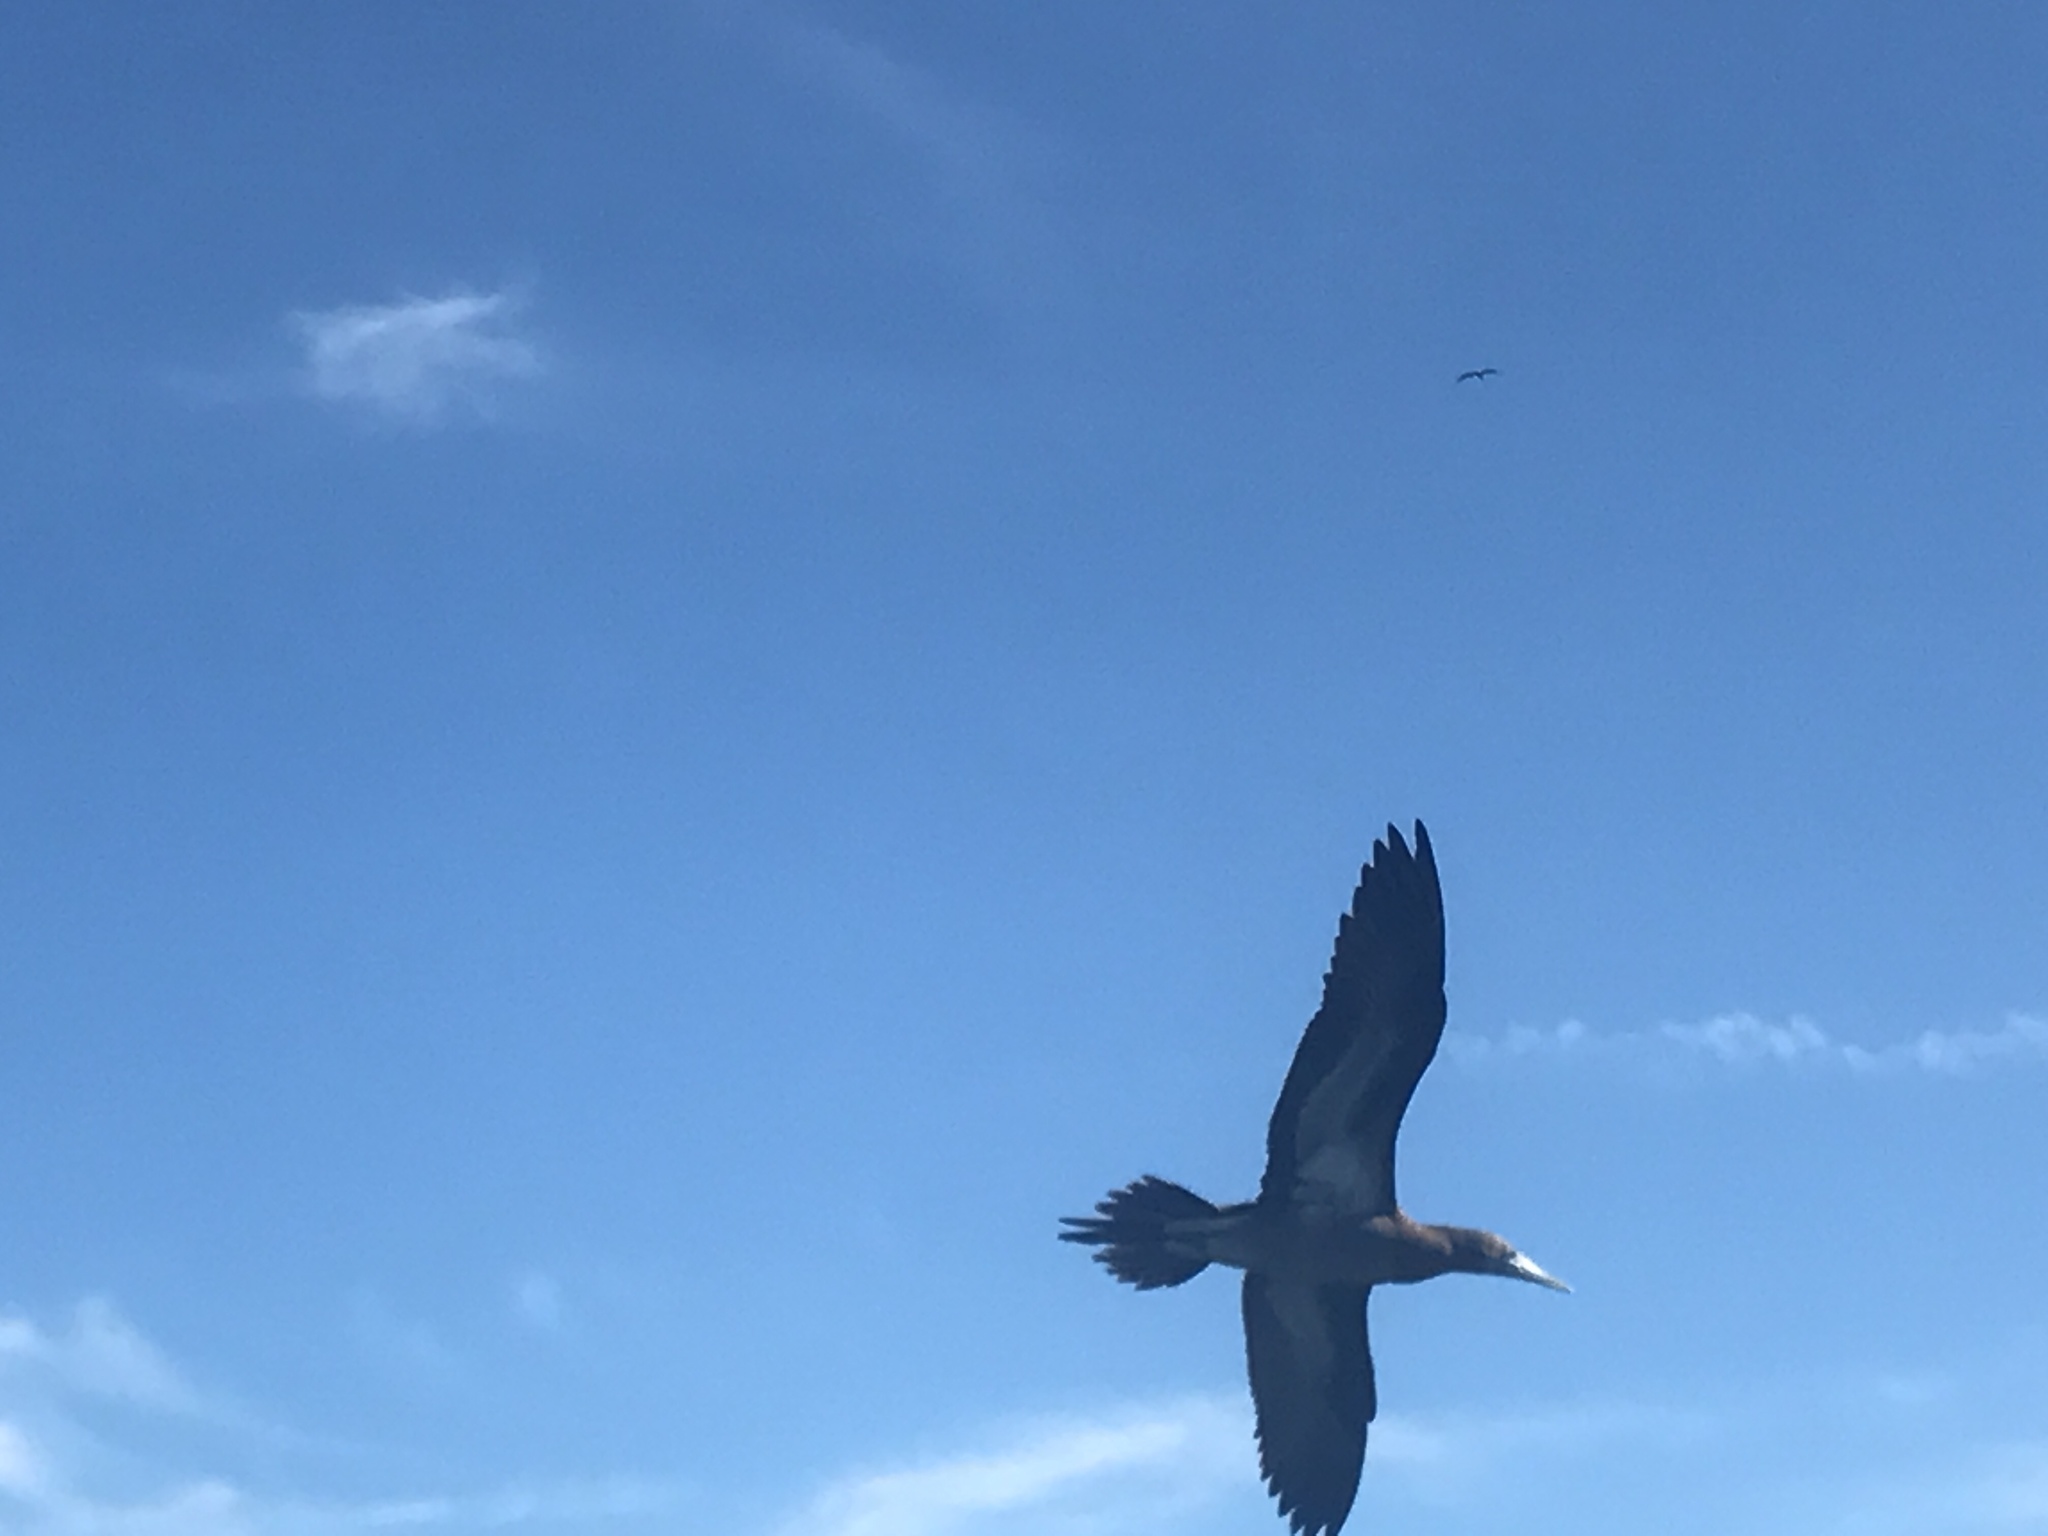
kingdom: Animalia
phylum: Chordata
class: Aves
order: Suliformes
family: Sulidae
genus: Sula
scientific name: Sula leucogaster
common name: Brown booby
